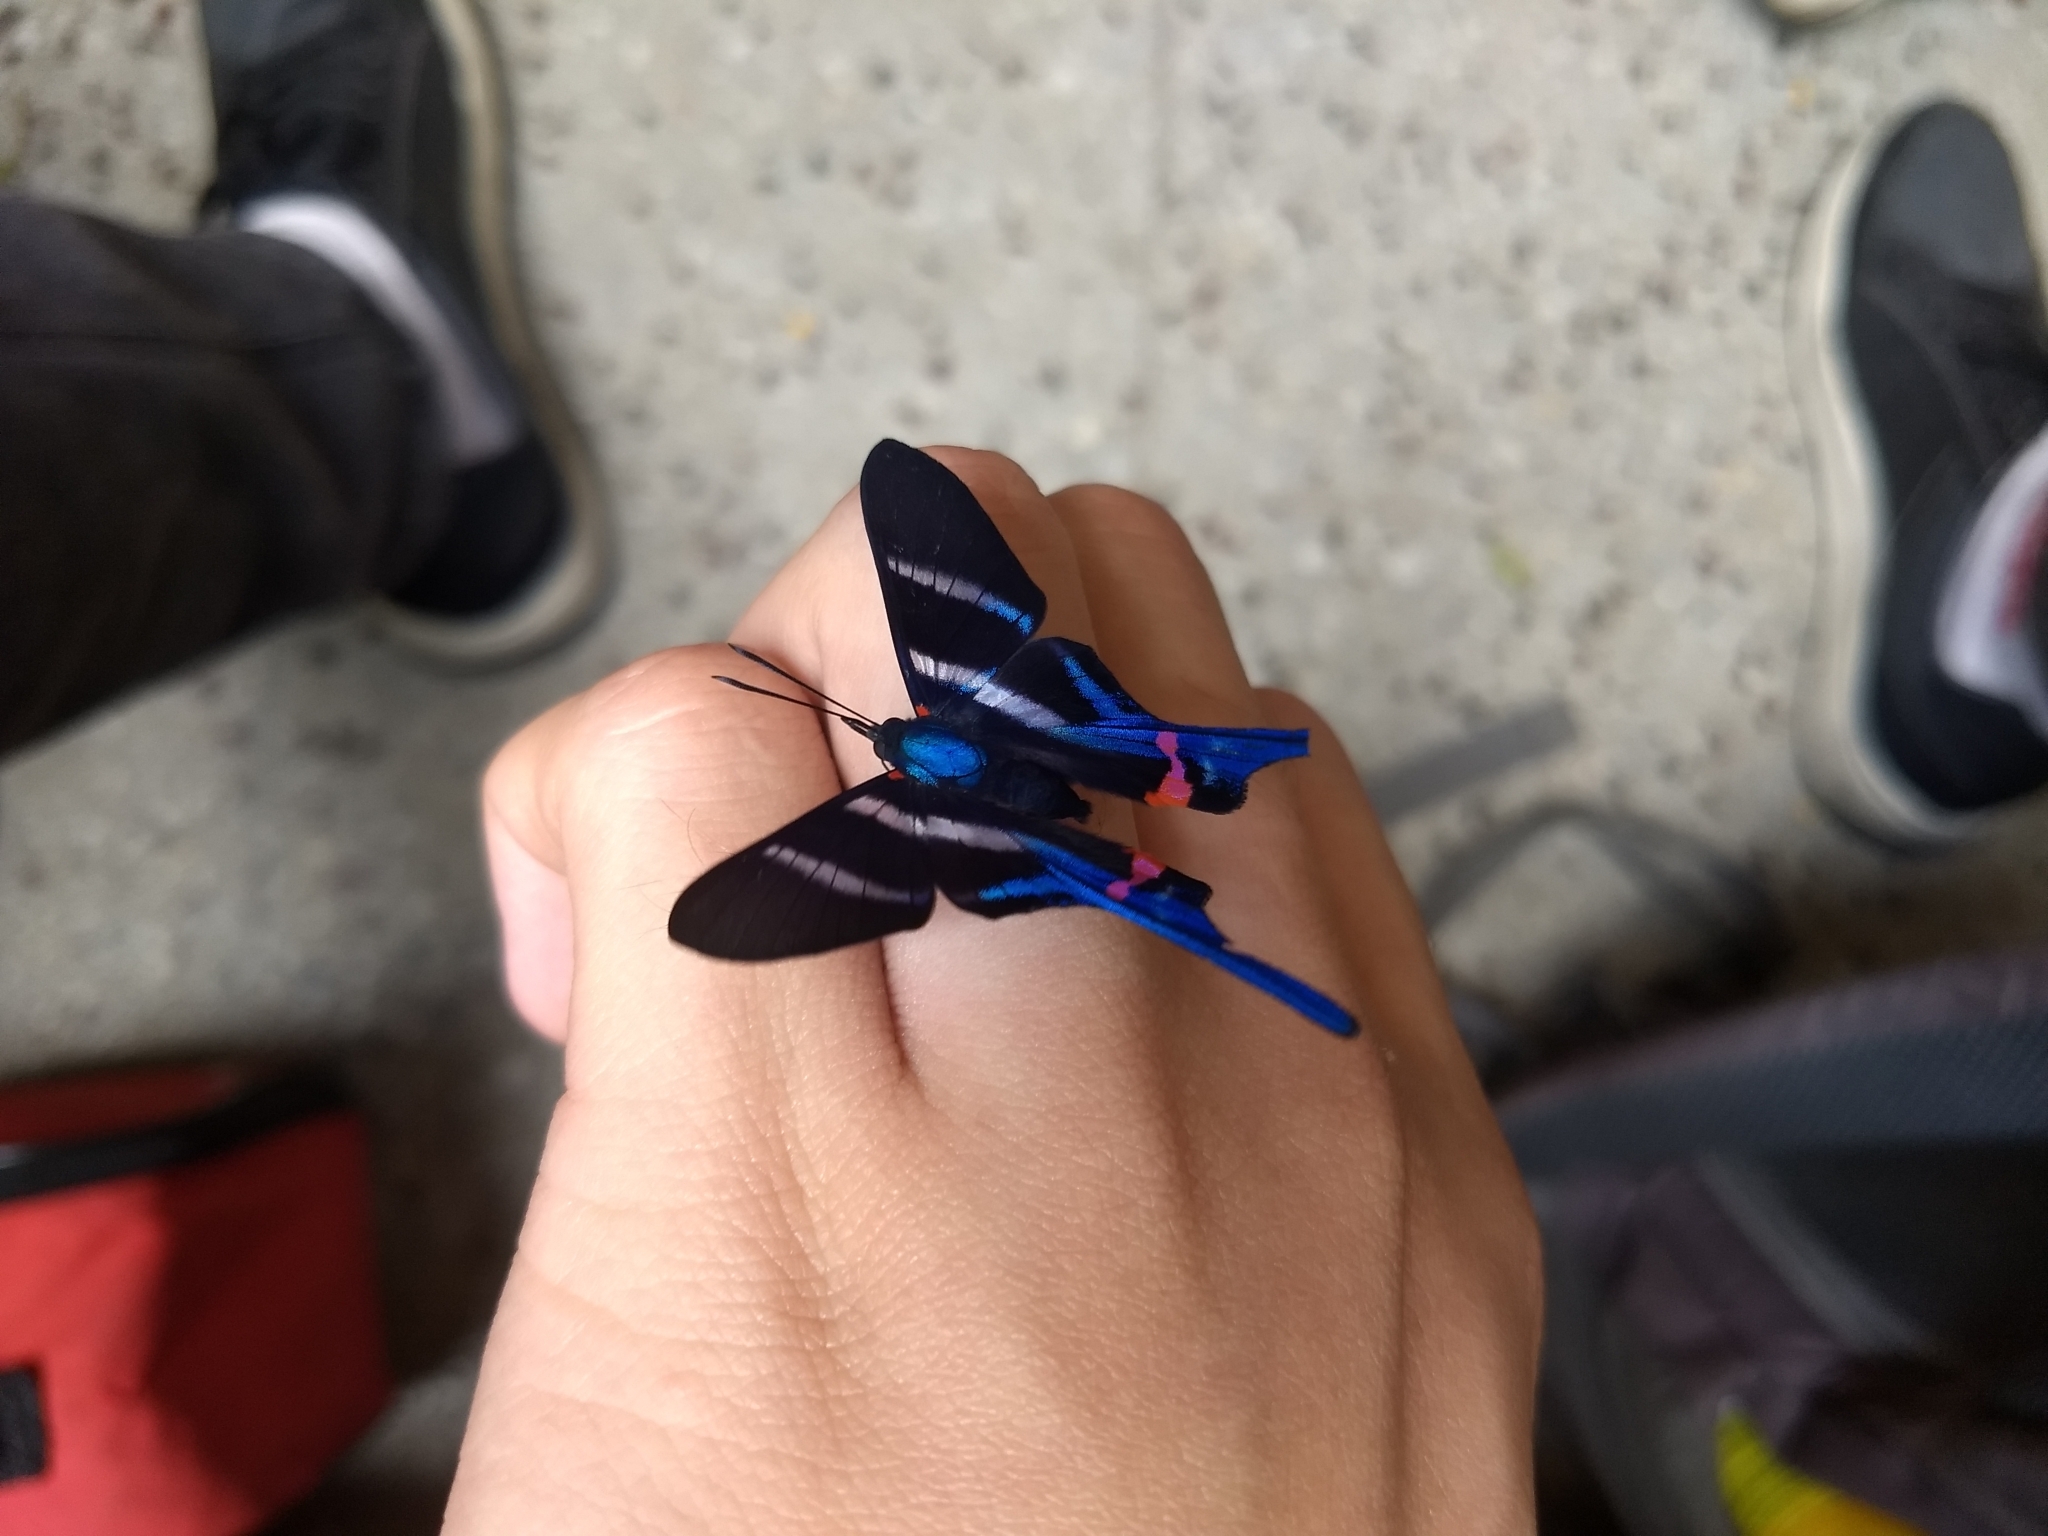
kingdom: Animalia
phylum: Arthropoda
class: Insecta
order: Lepidoptera
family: Riodinidae
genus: Rhetus
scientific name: Rhetus arcius
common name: Long-tailed metalmark
